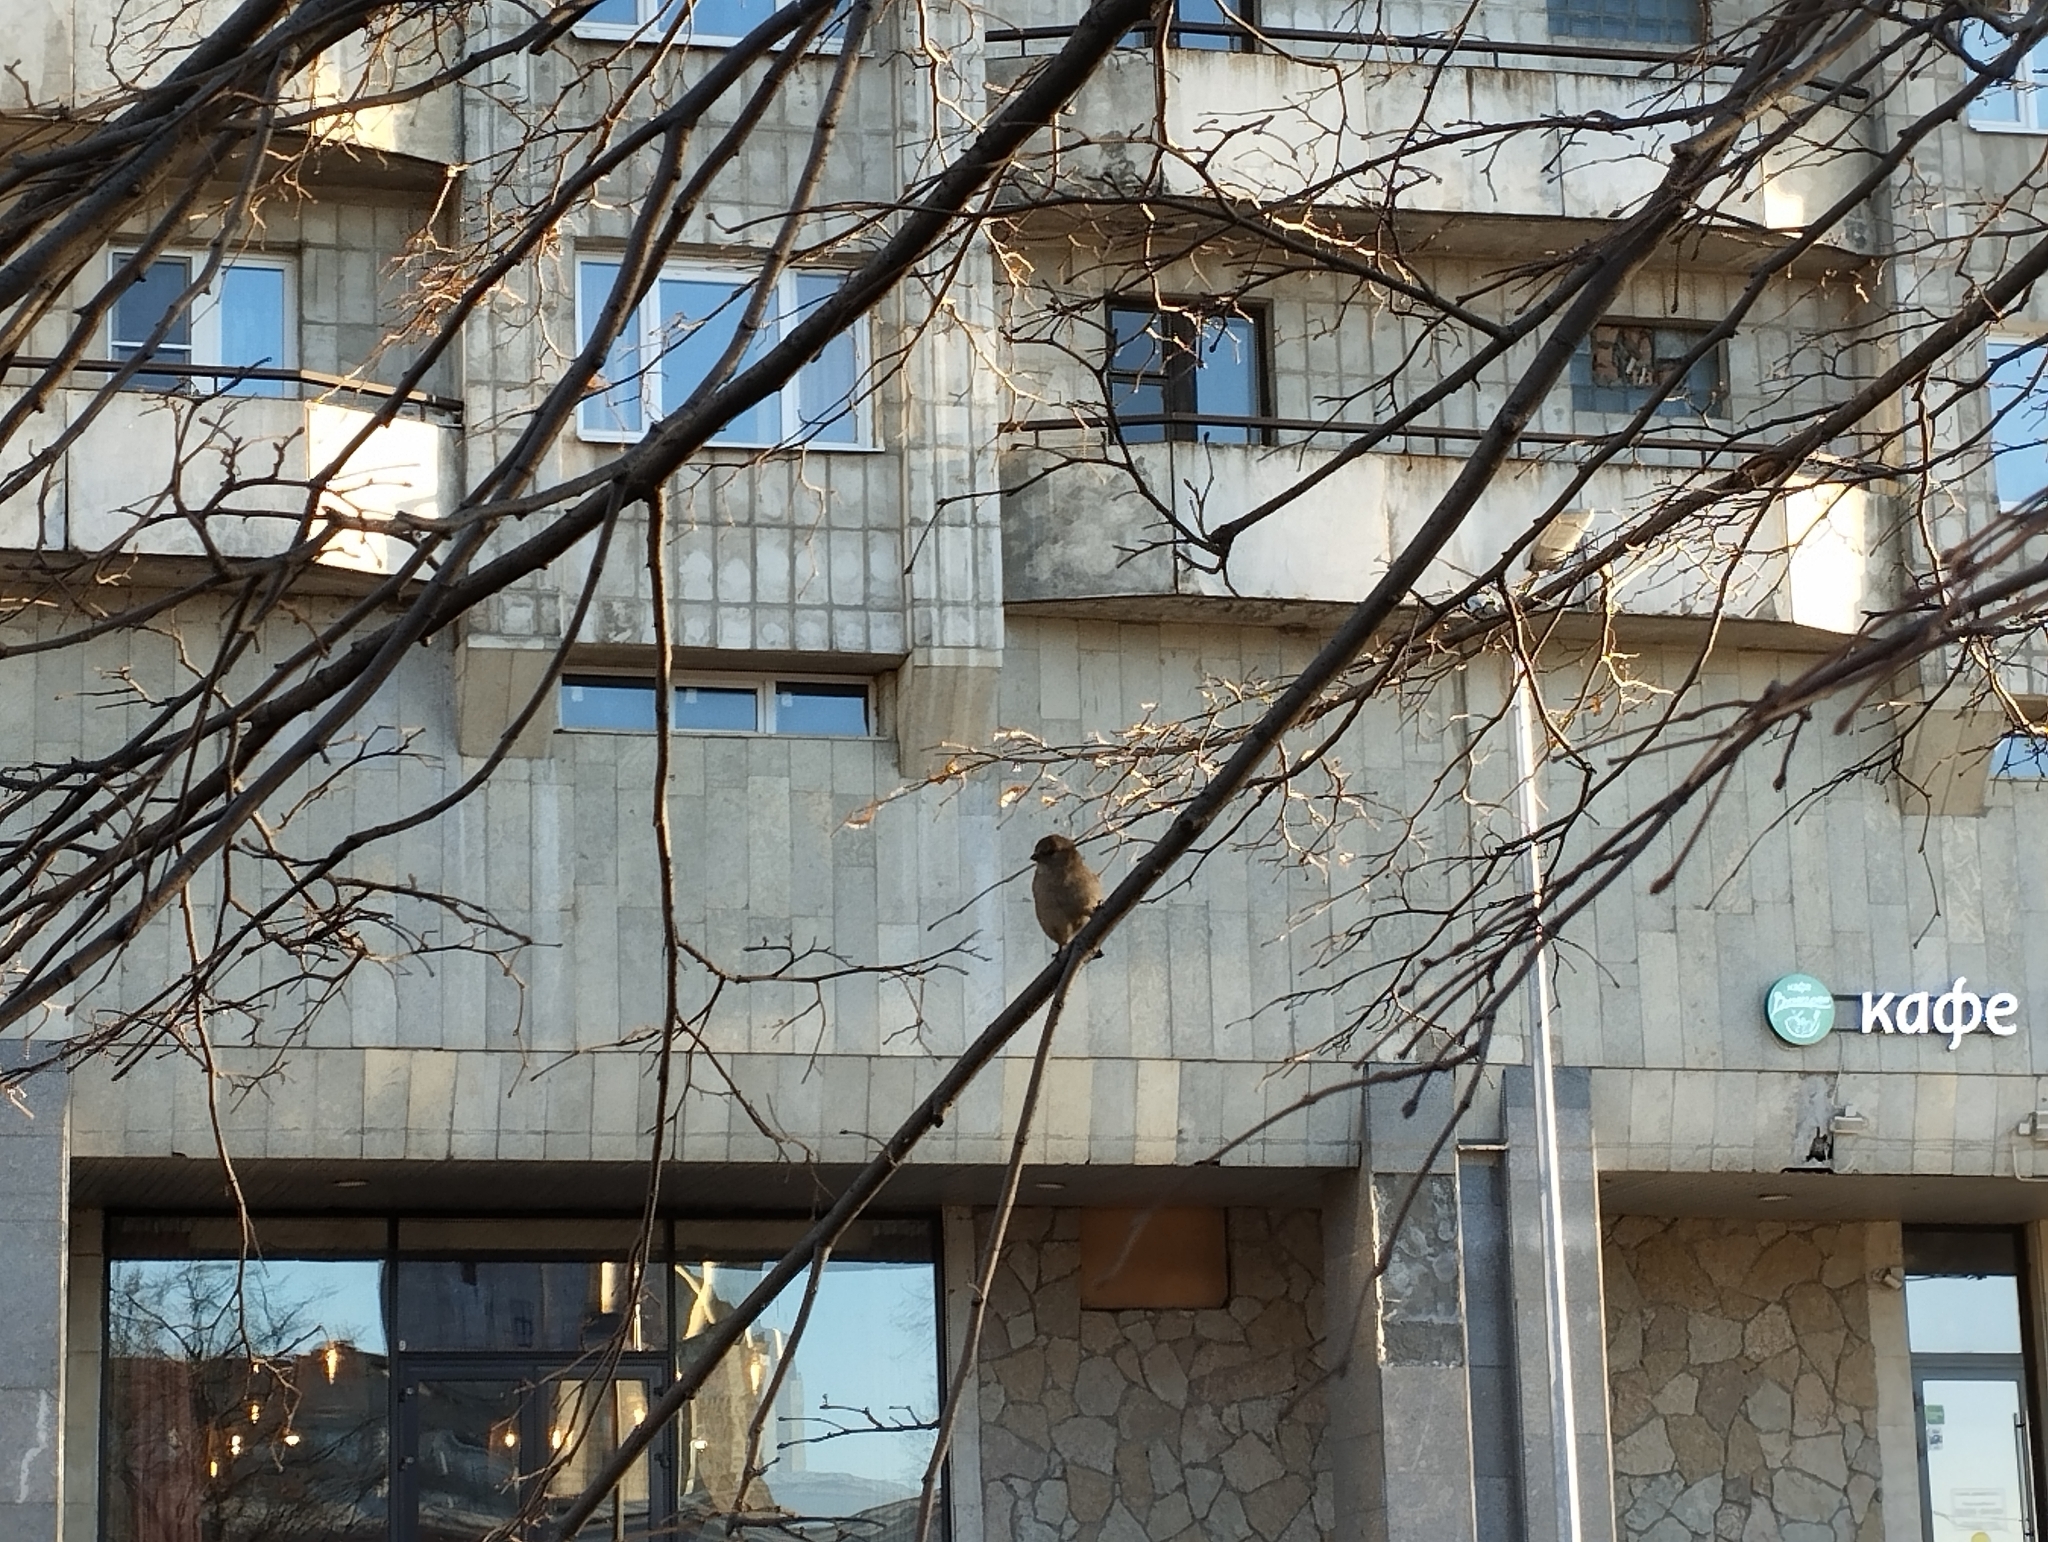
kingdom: Animalia
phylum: Chordata
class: Aves
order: Passeriformes
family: Passeridae
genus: Passer
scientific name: Passer domesticus
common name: House sparrow
